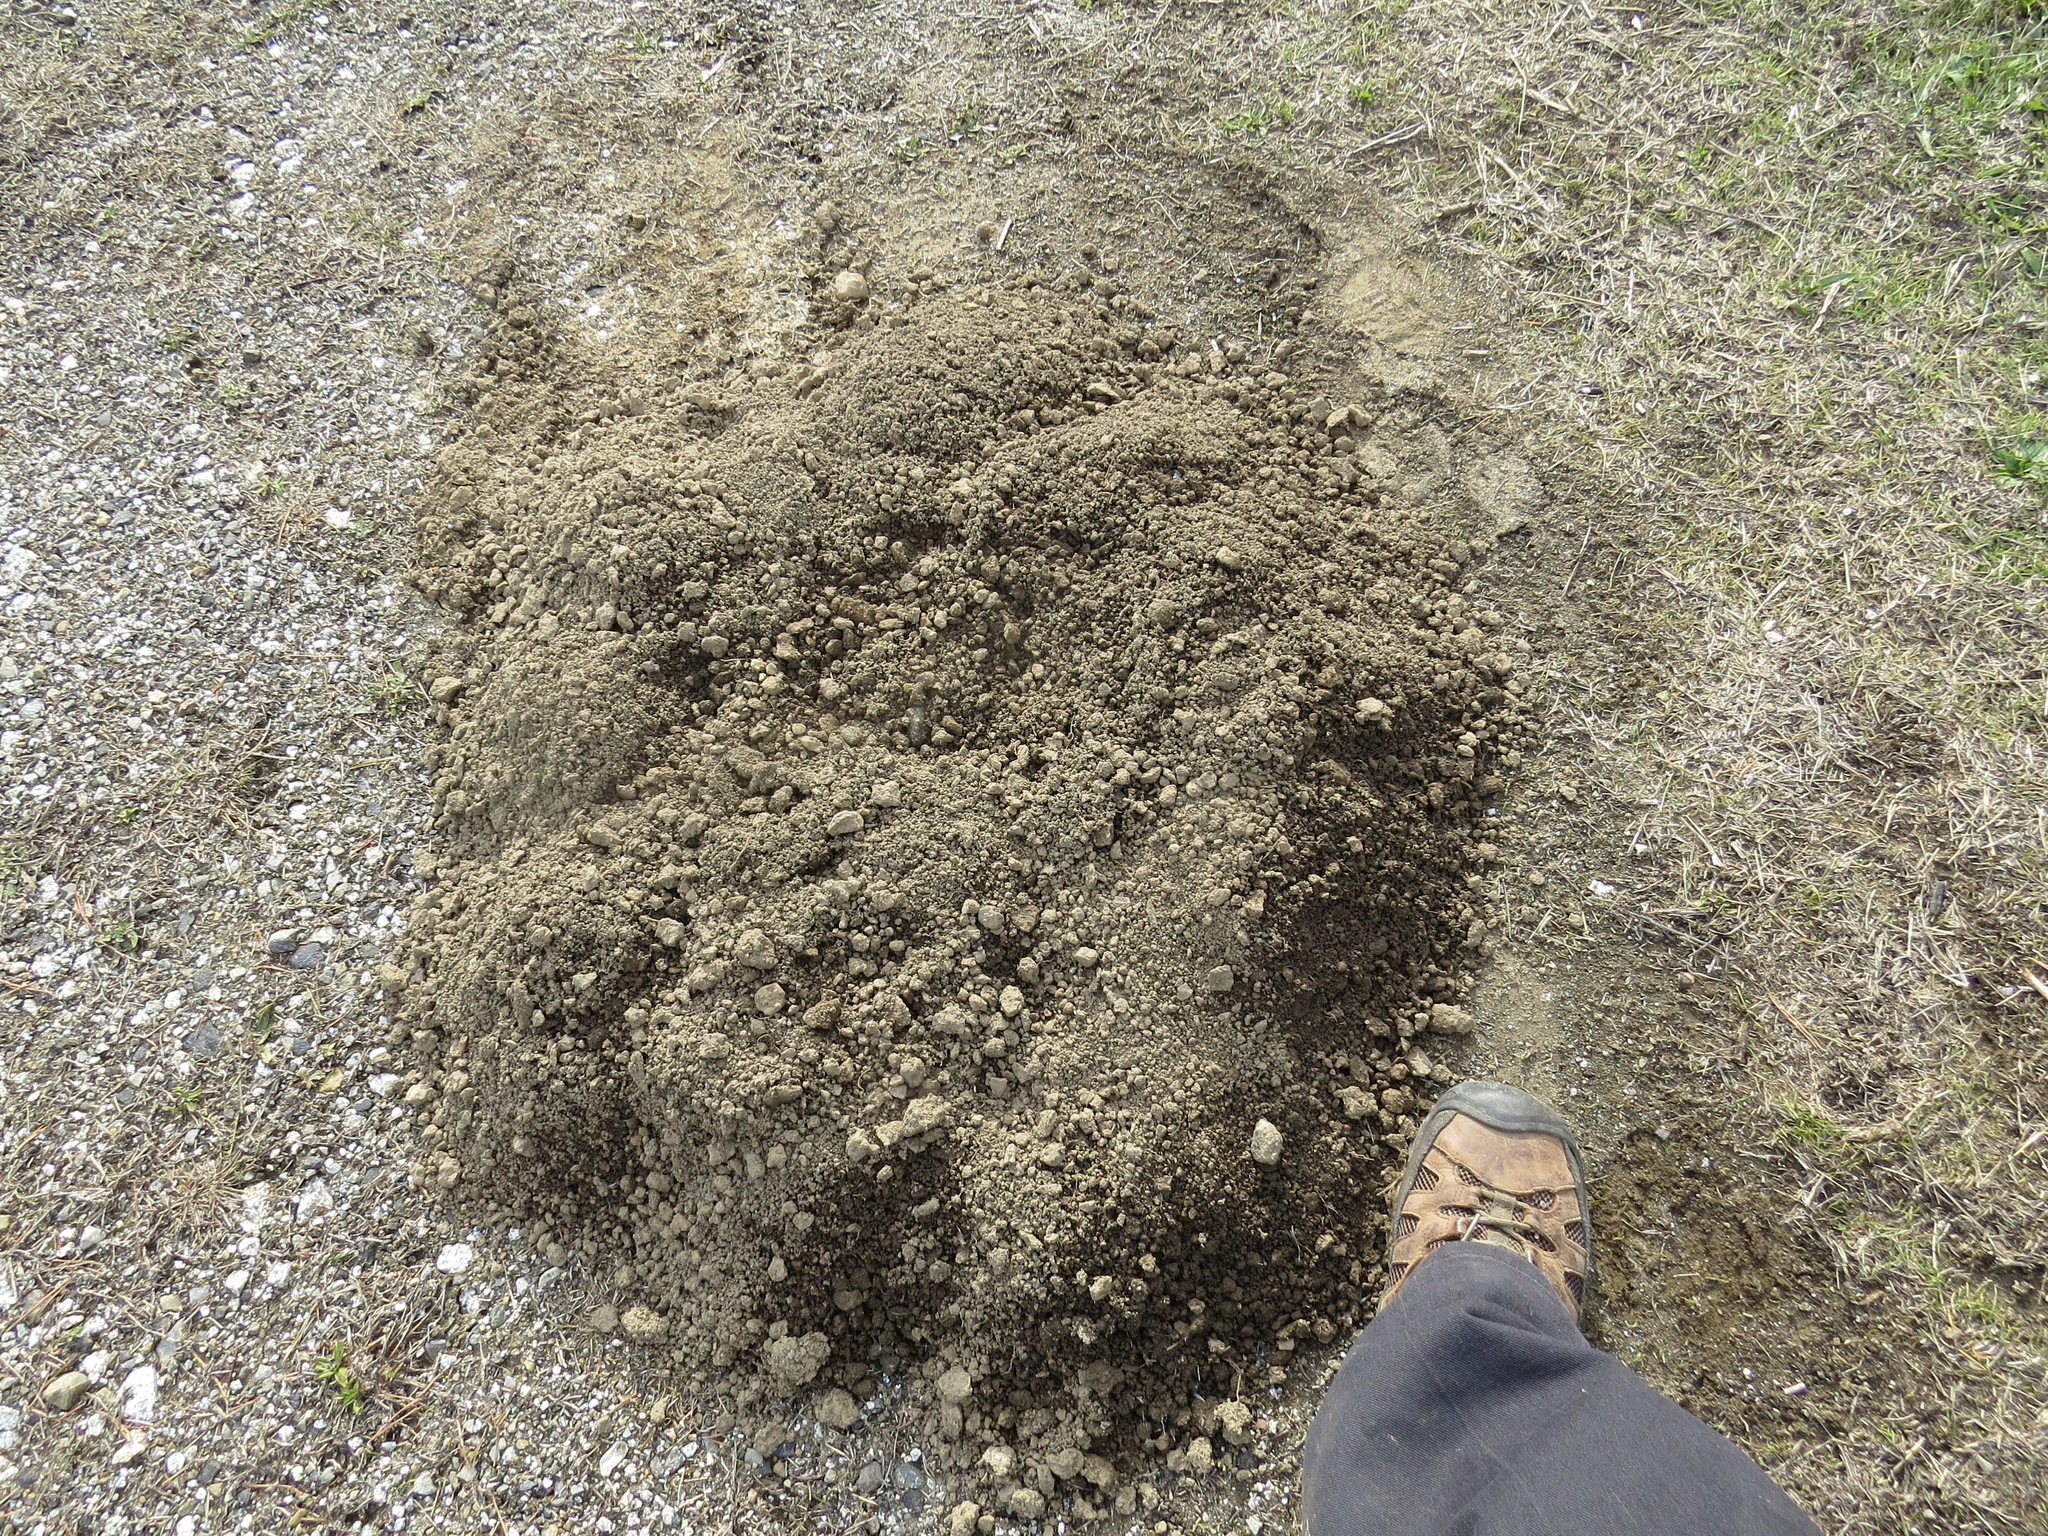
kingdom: Animalia
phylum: Chordata
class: Mammalia
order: Soricomorpha
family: Talpidae
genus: Scapanus
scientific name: Scapanus latimanus
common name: Broad-footed mole
